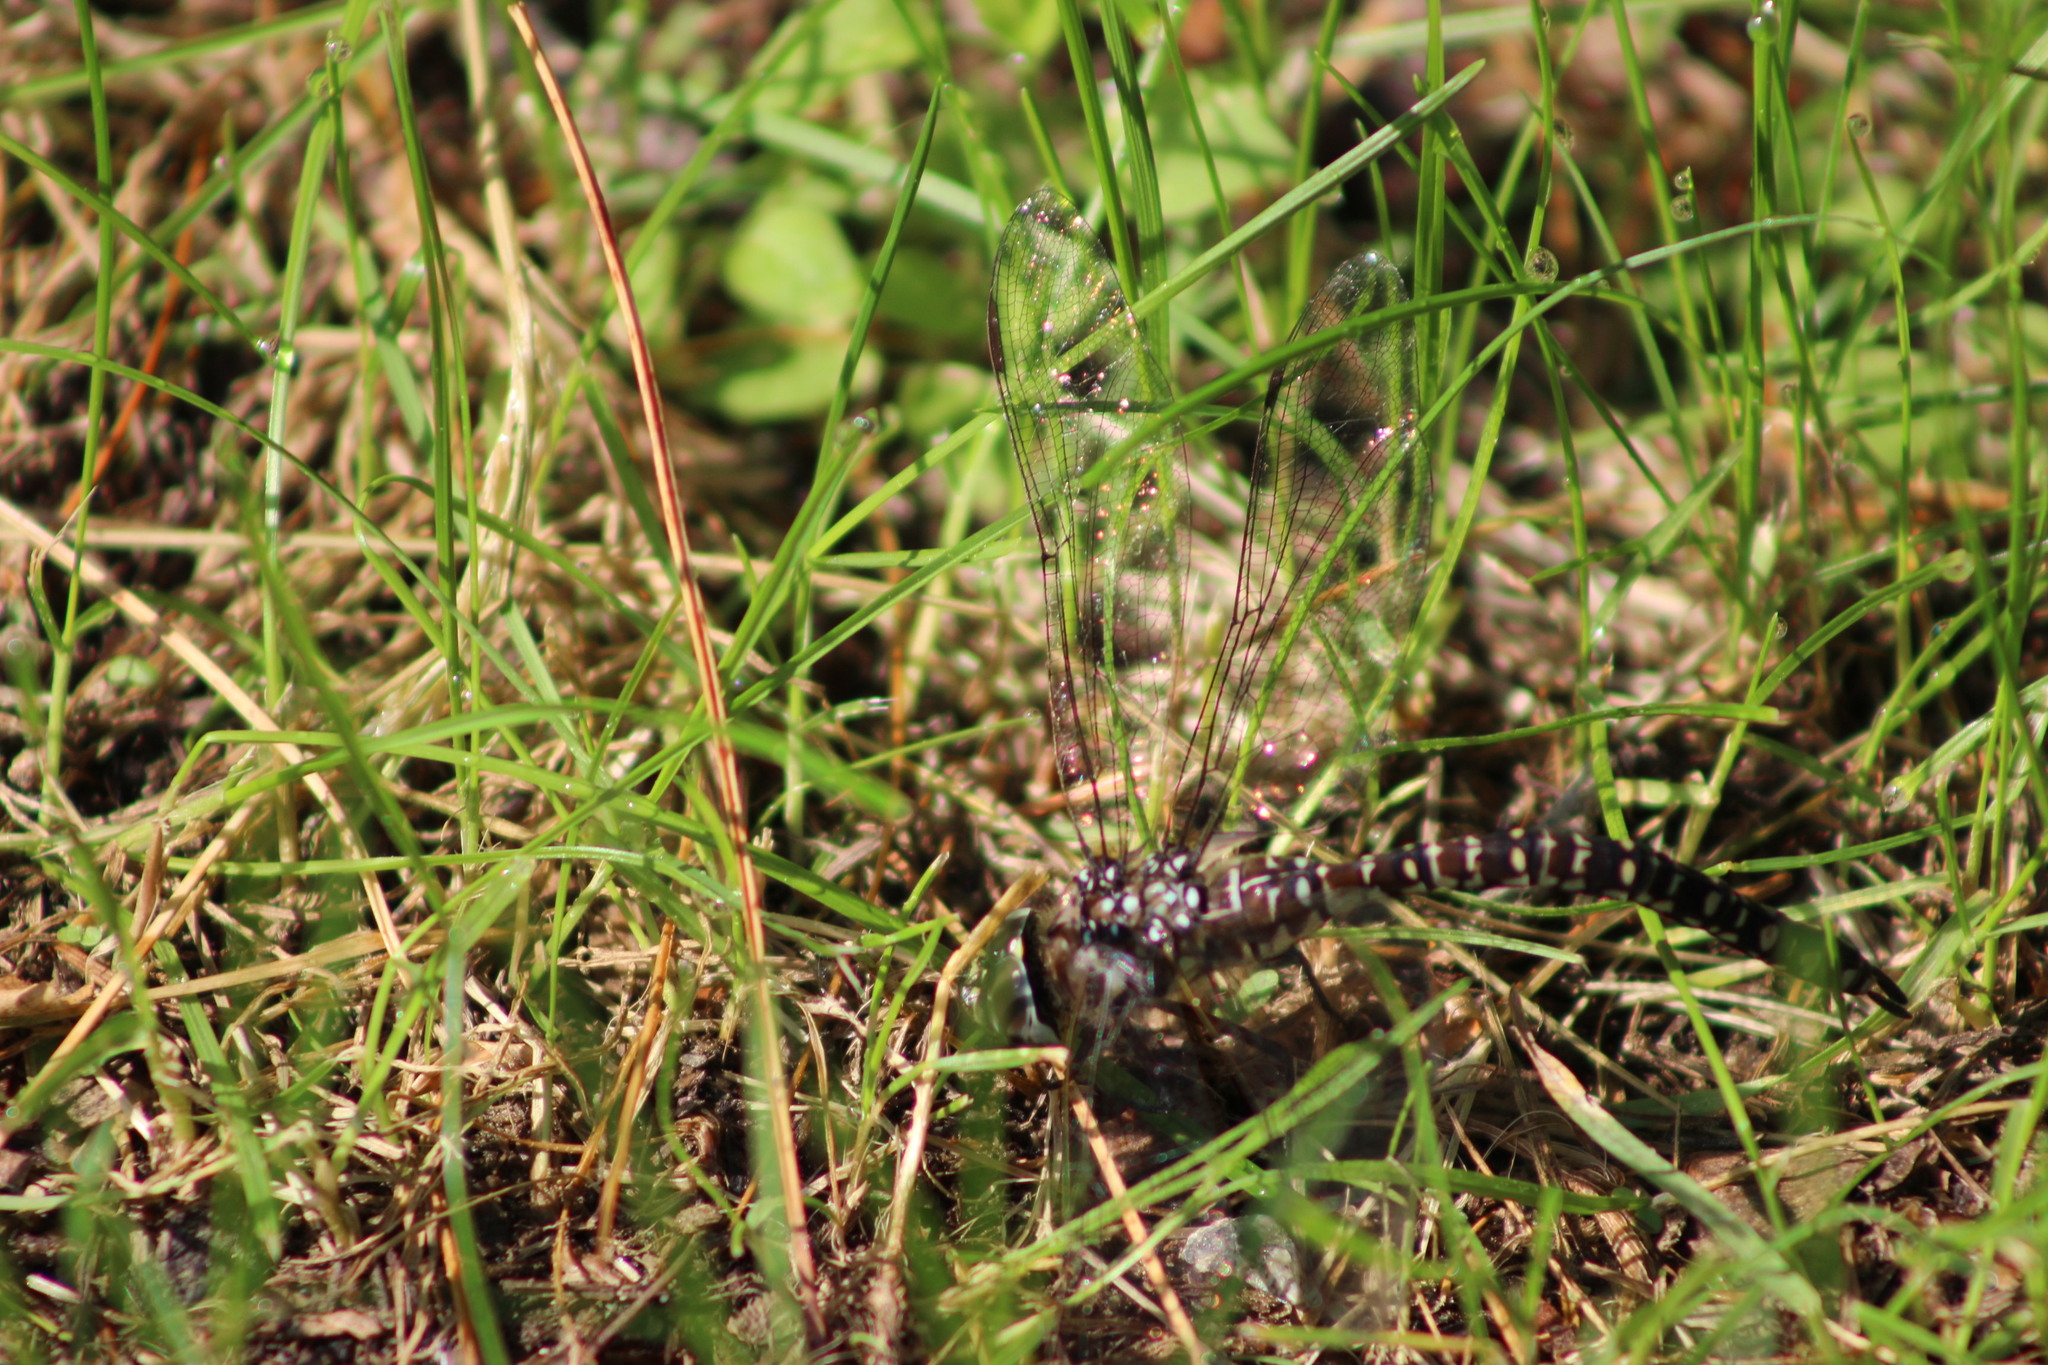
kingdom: Animalia
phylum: Arthropoda
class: Insecta
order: Odonata
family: Aeshnidae
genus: Aeshna
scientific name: Aeshna subarctica
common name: Subarctic darner
